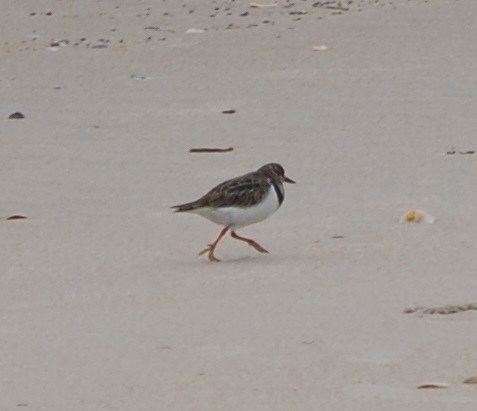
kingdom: Animalia
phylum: Chordata
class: Aves
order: Charadriiformes
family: Scolopacidae
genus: Arenaria
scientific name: Arenaria interpres
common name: Ruddy turnstone
